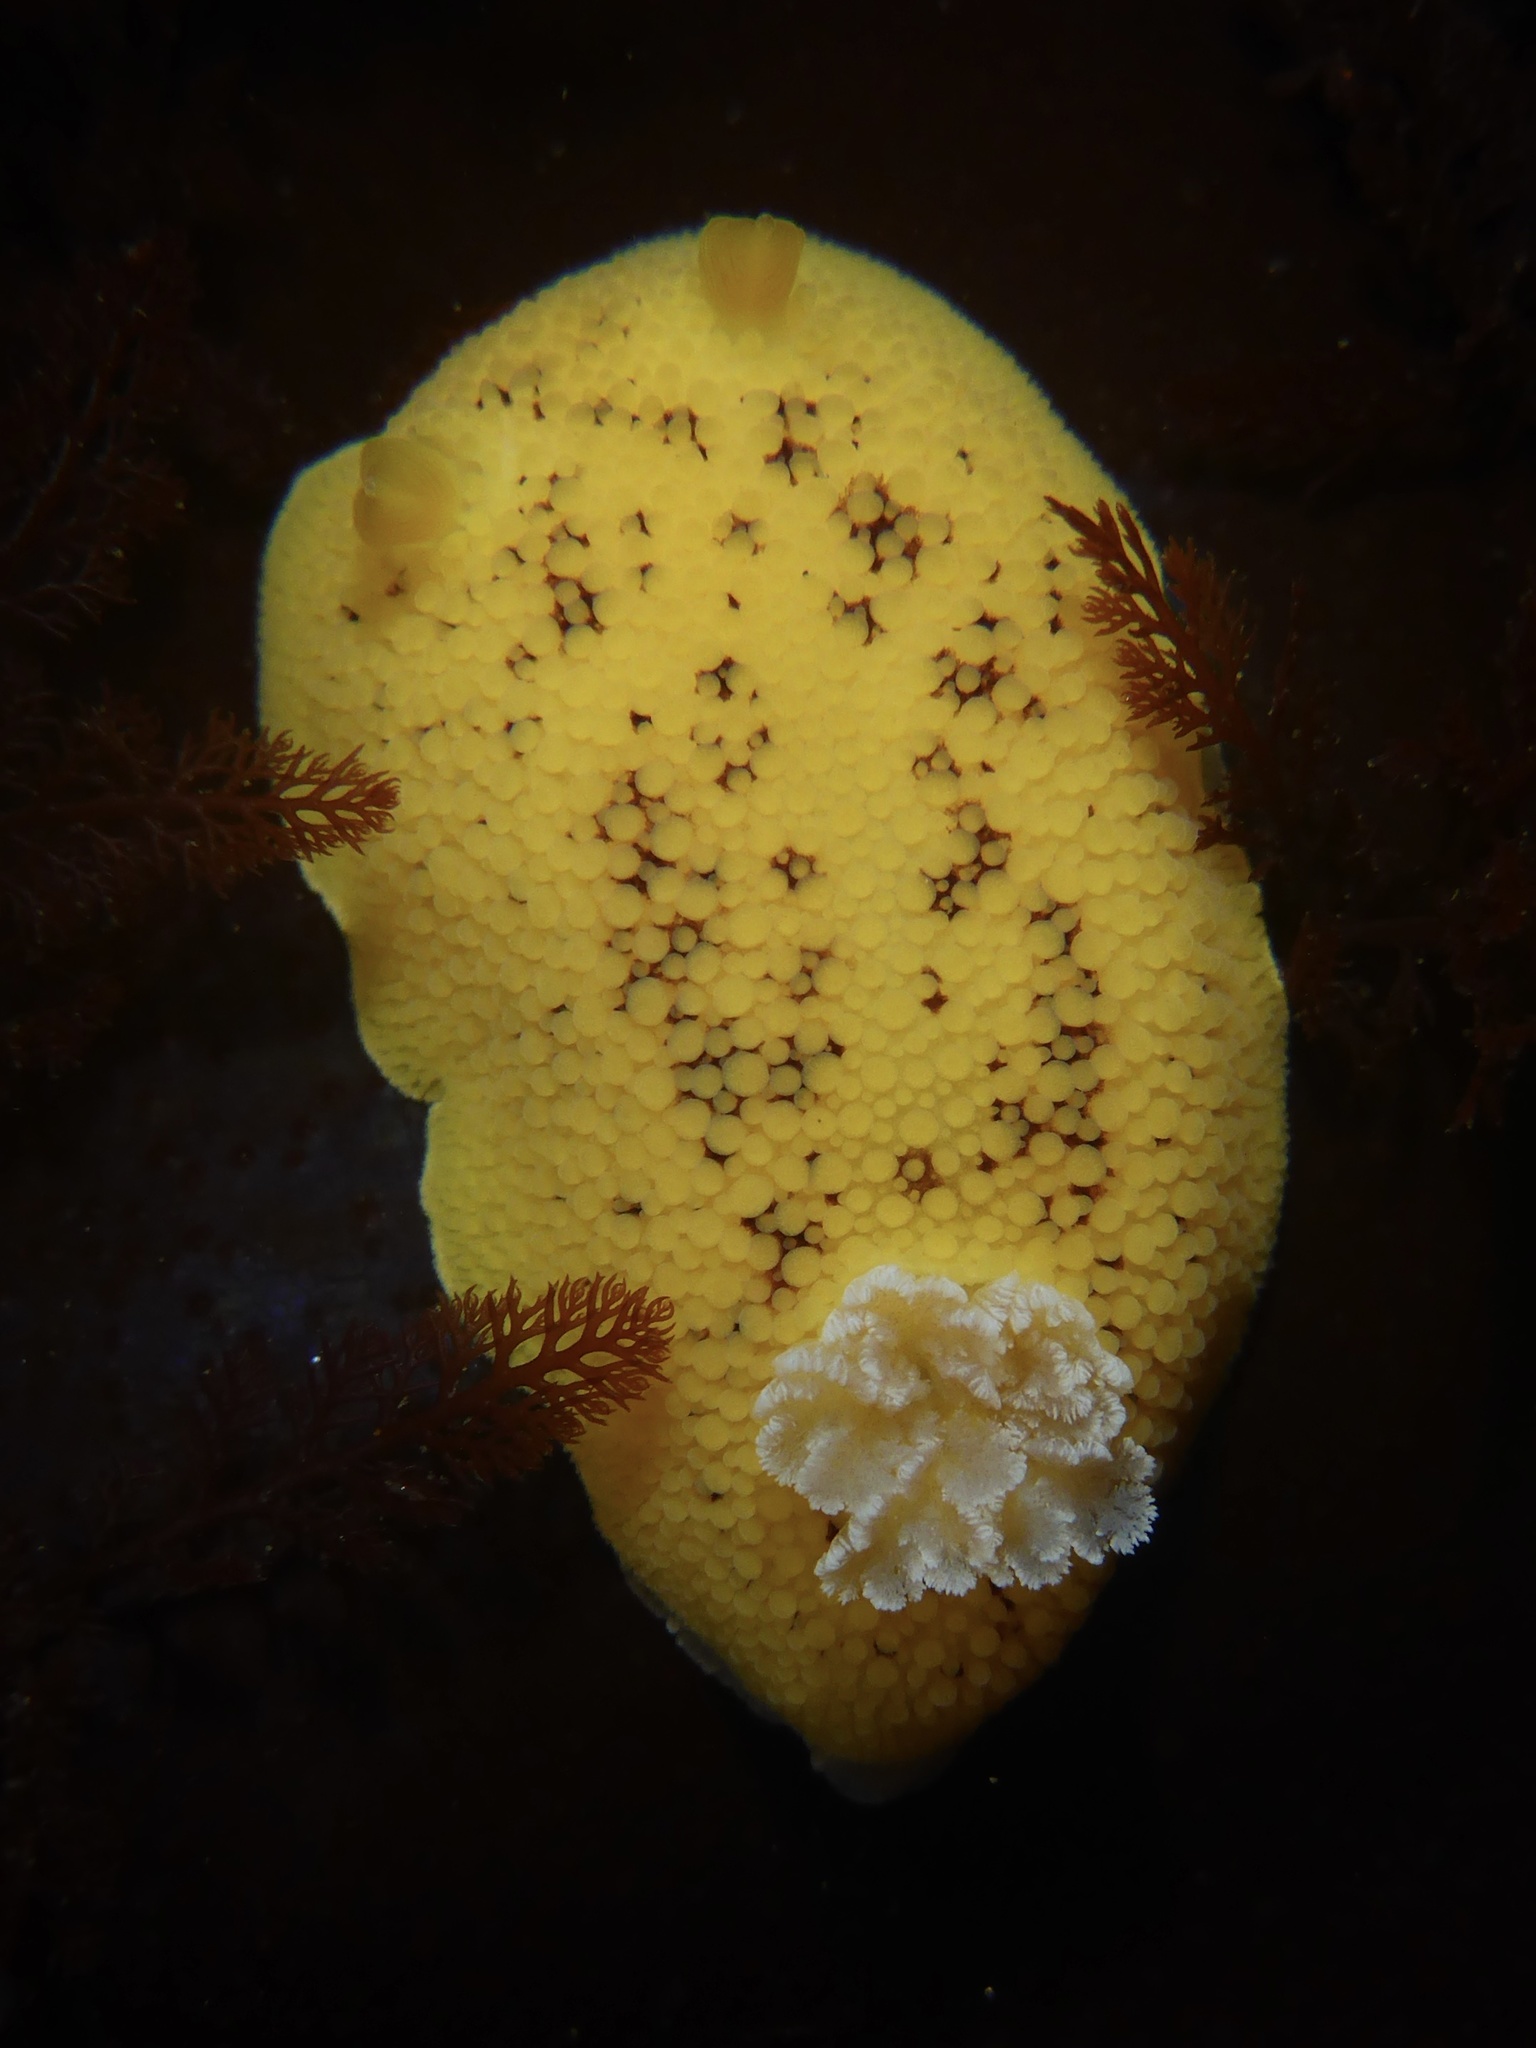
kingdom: Animalia
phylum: Mollusca
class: Gastropoda
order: Nudibranchia
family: Discodorididae
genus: Peltodoris
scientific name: Peltodoris nobilis
